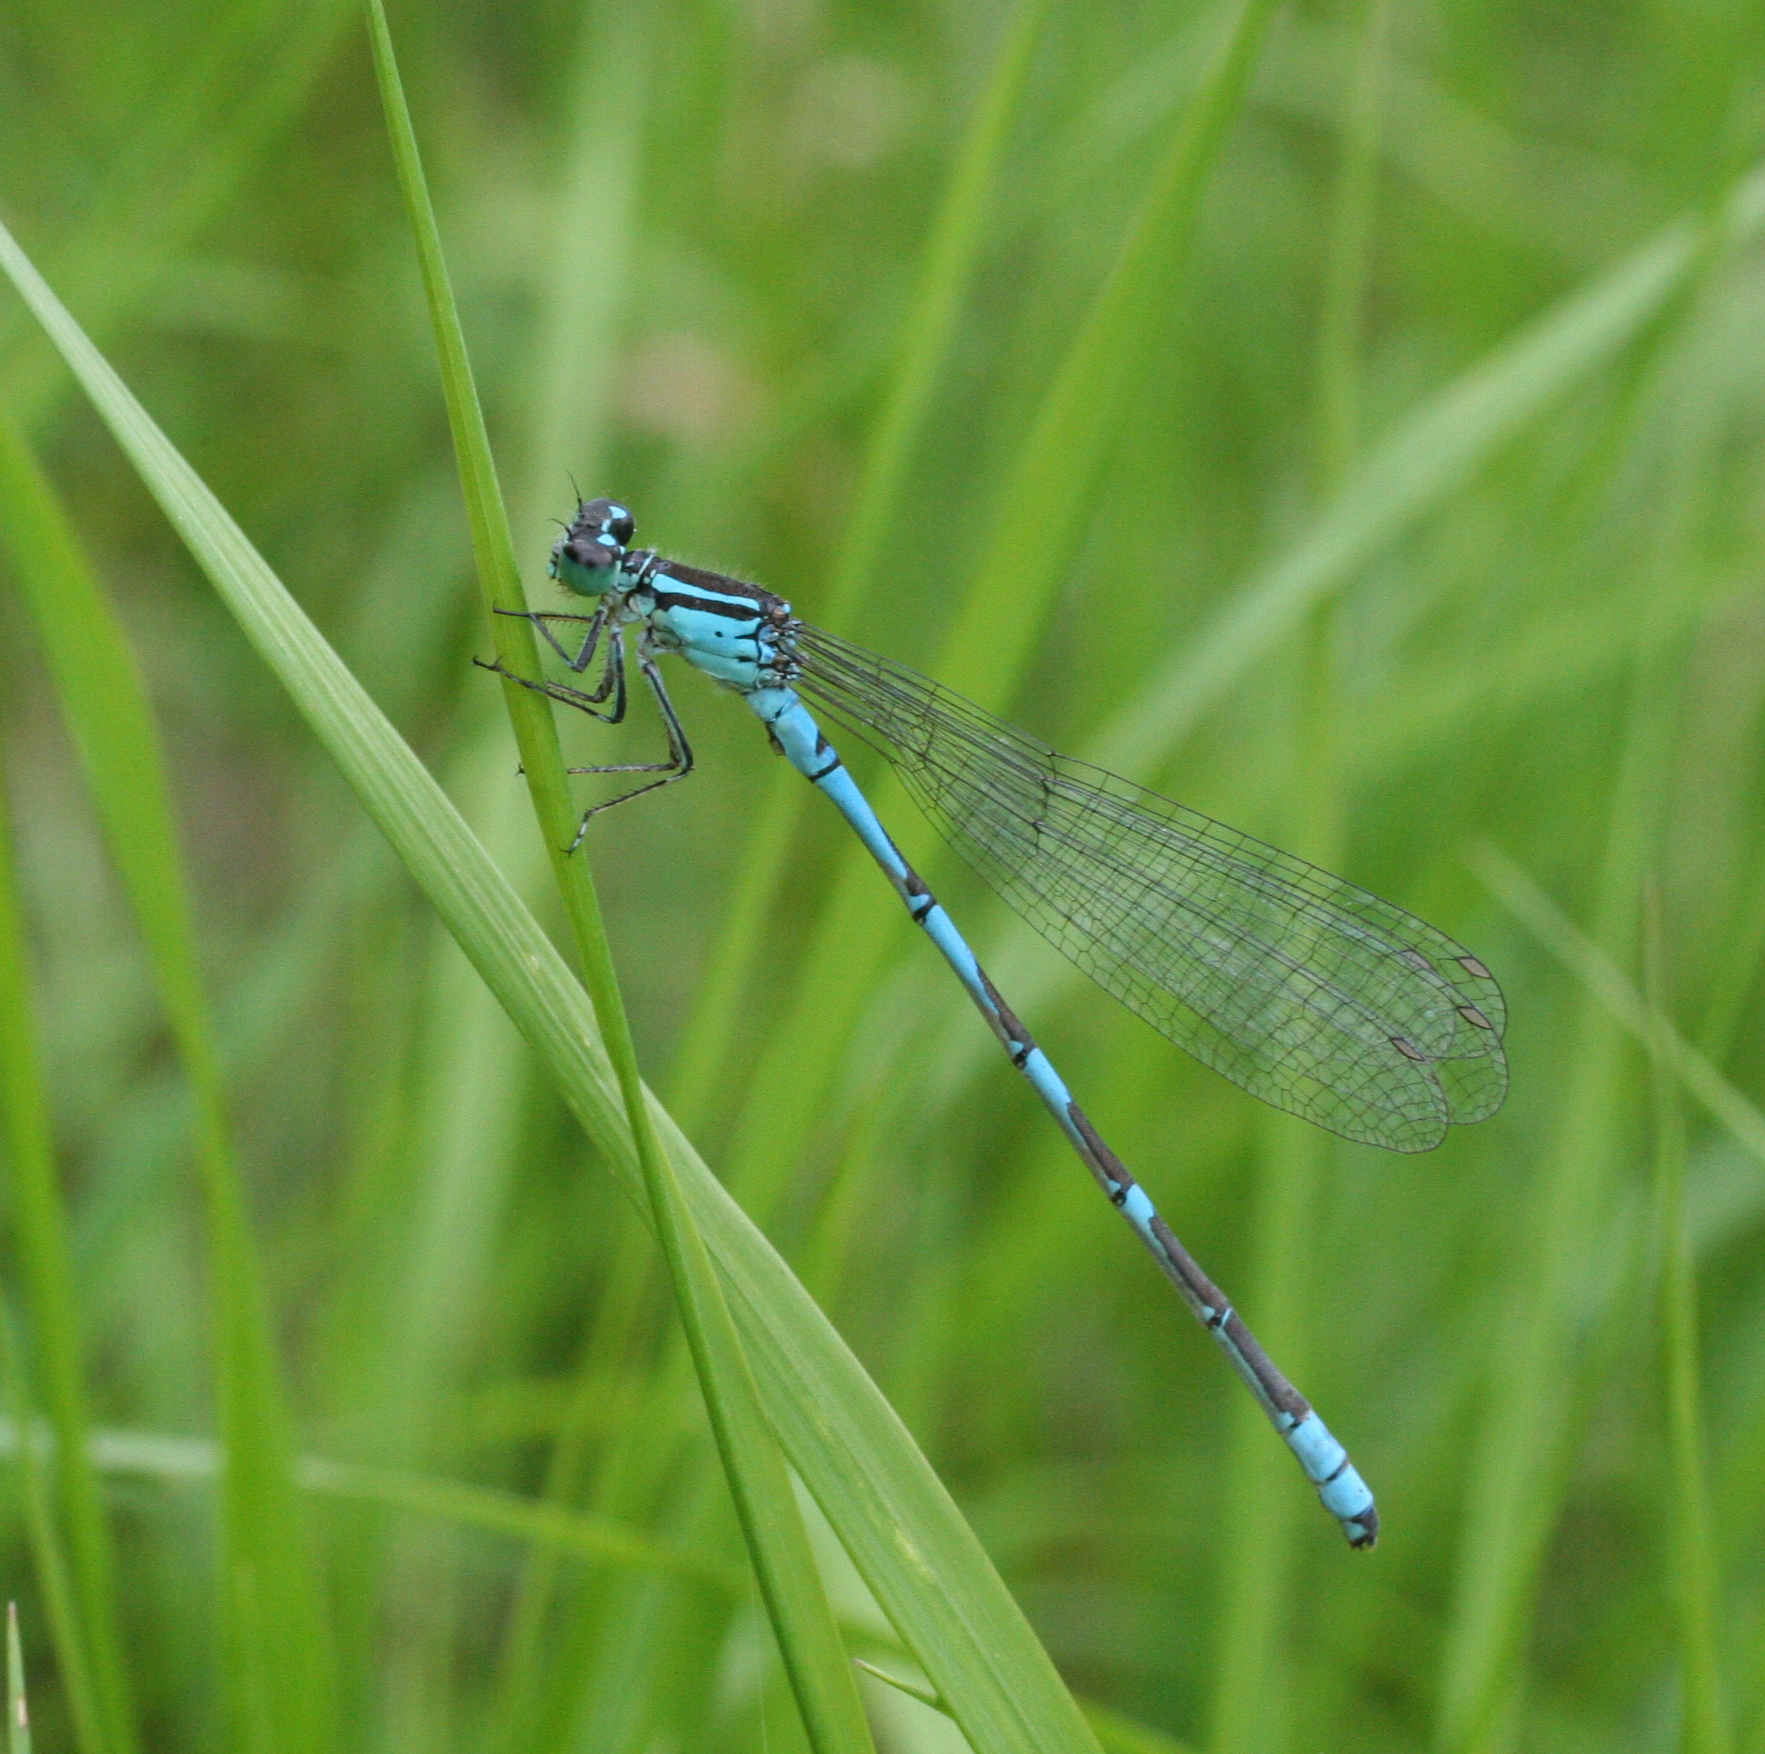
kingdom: Animalia
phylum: Arthropoda
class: Insecta
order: Odonata
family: Coenagrionidae
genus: Coenagrion
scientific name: Coenagrion lanceolatum
